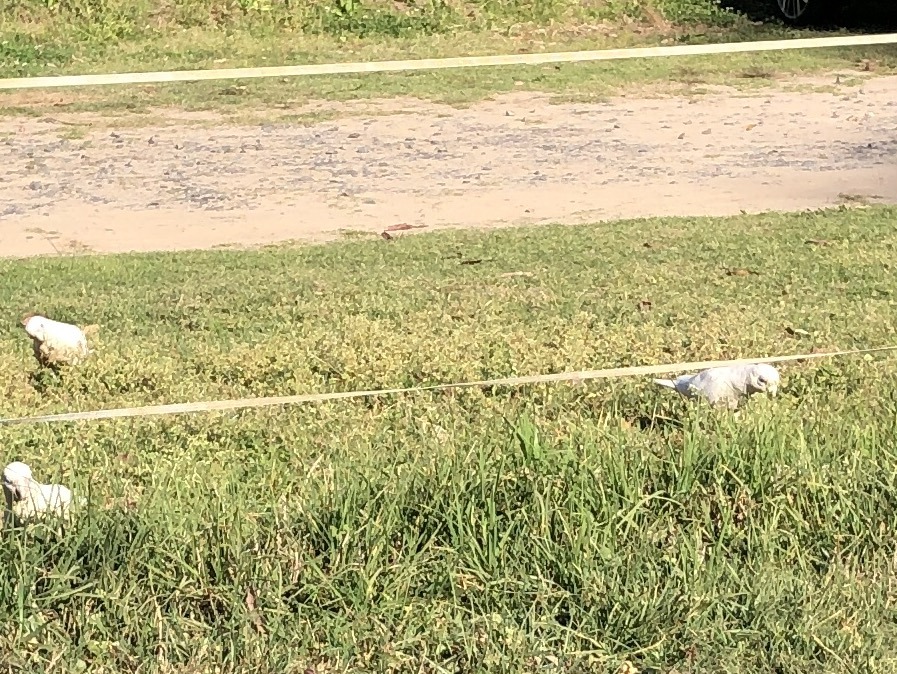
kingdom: Animalia
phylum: Chordata
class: Aves
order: Psittaciformes
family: Psittacidae
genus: Cacatua
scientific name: Cacatua sanguinea
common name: Little corella
